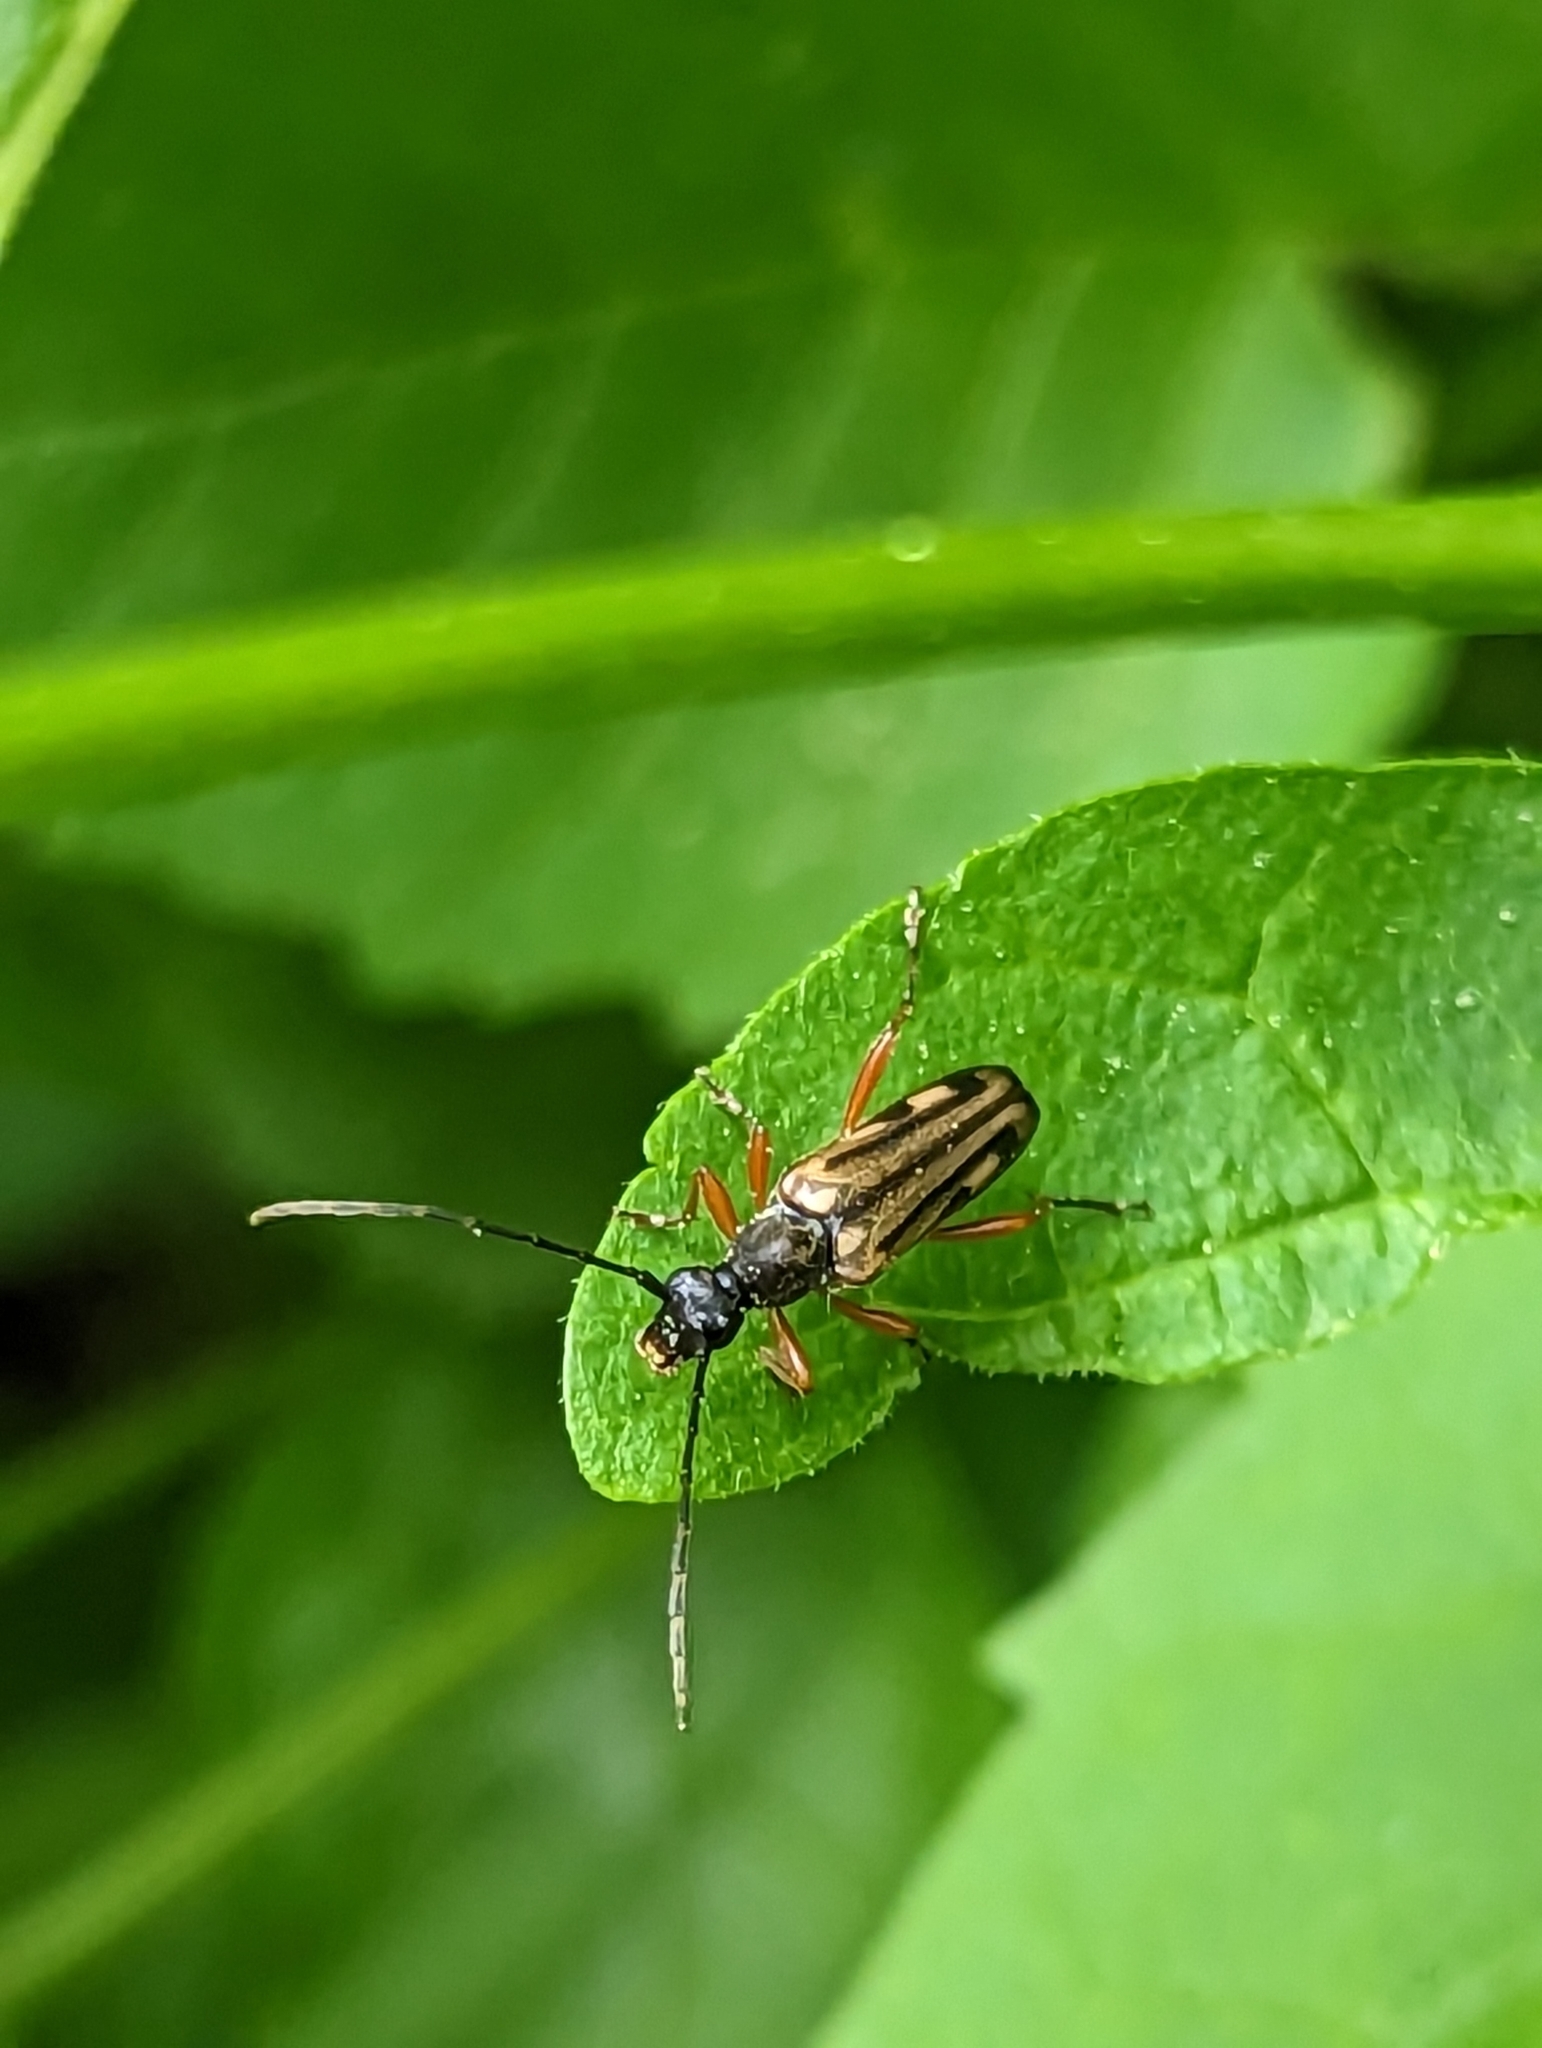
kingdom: Animalia
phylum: Arthropoda
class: Insecta
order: Coleoptera
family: Cerambycidae
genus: Analeptura
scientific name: Analeptura lineola
